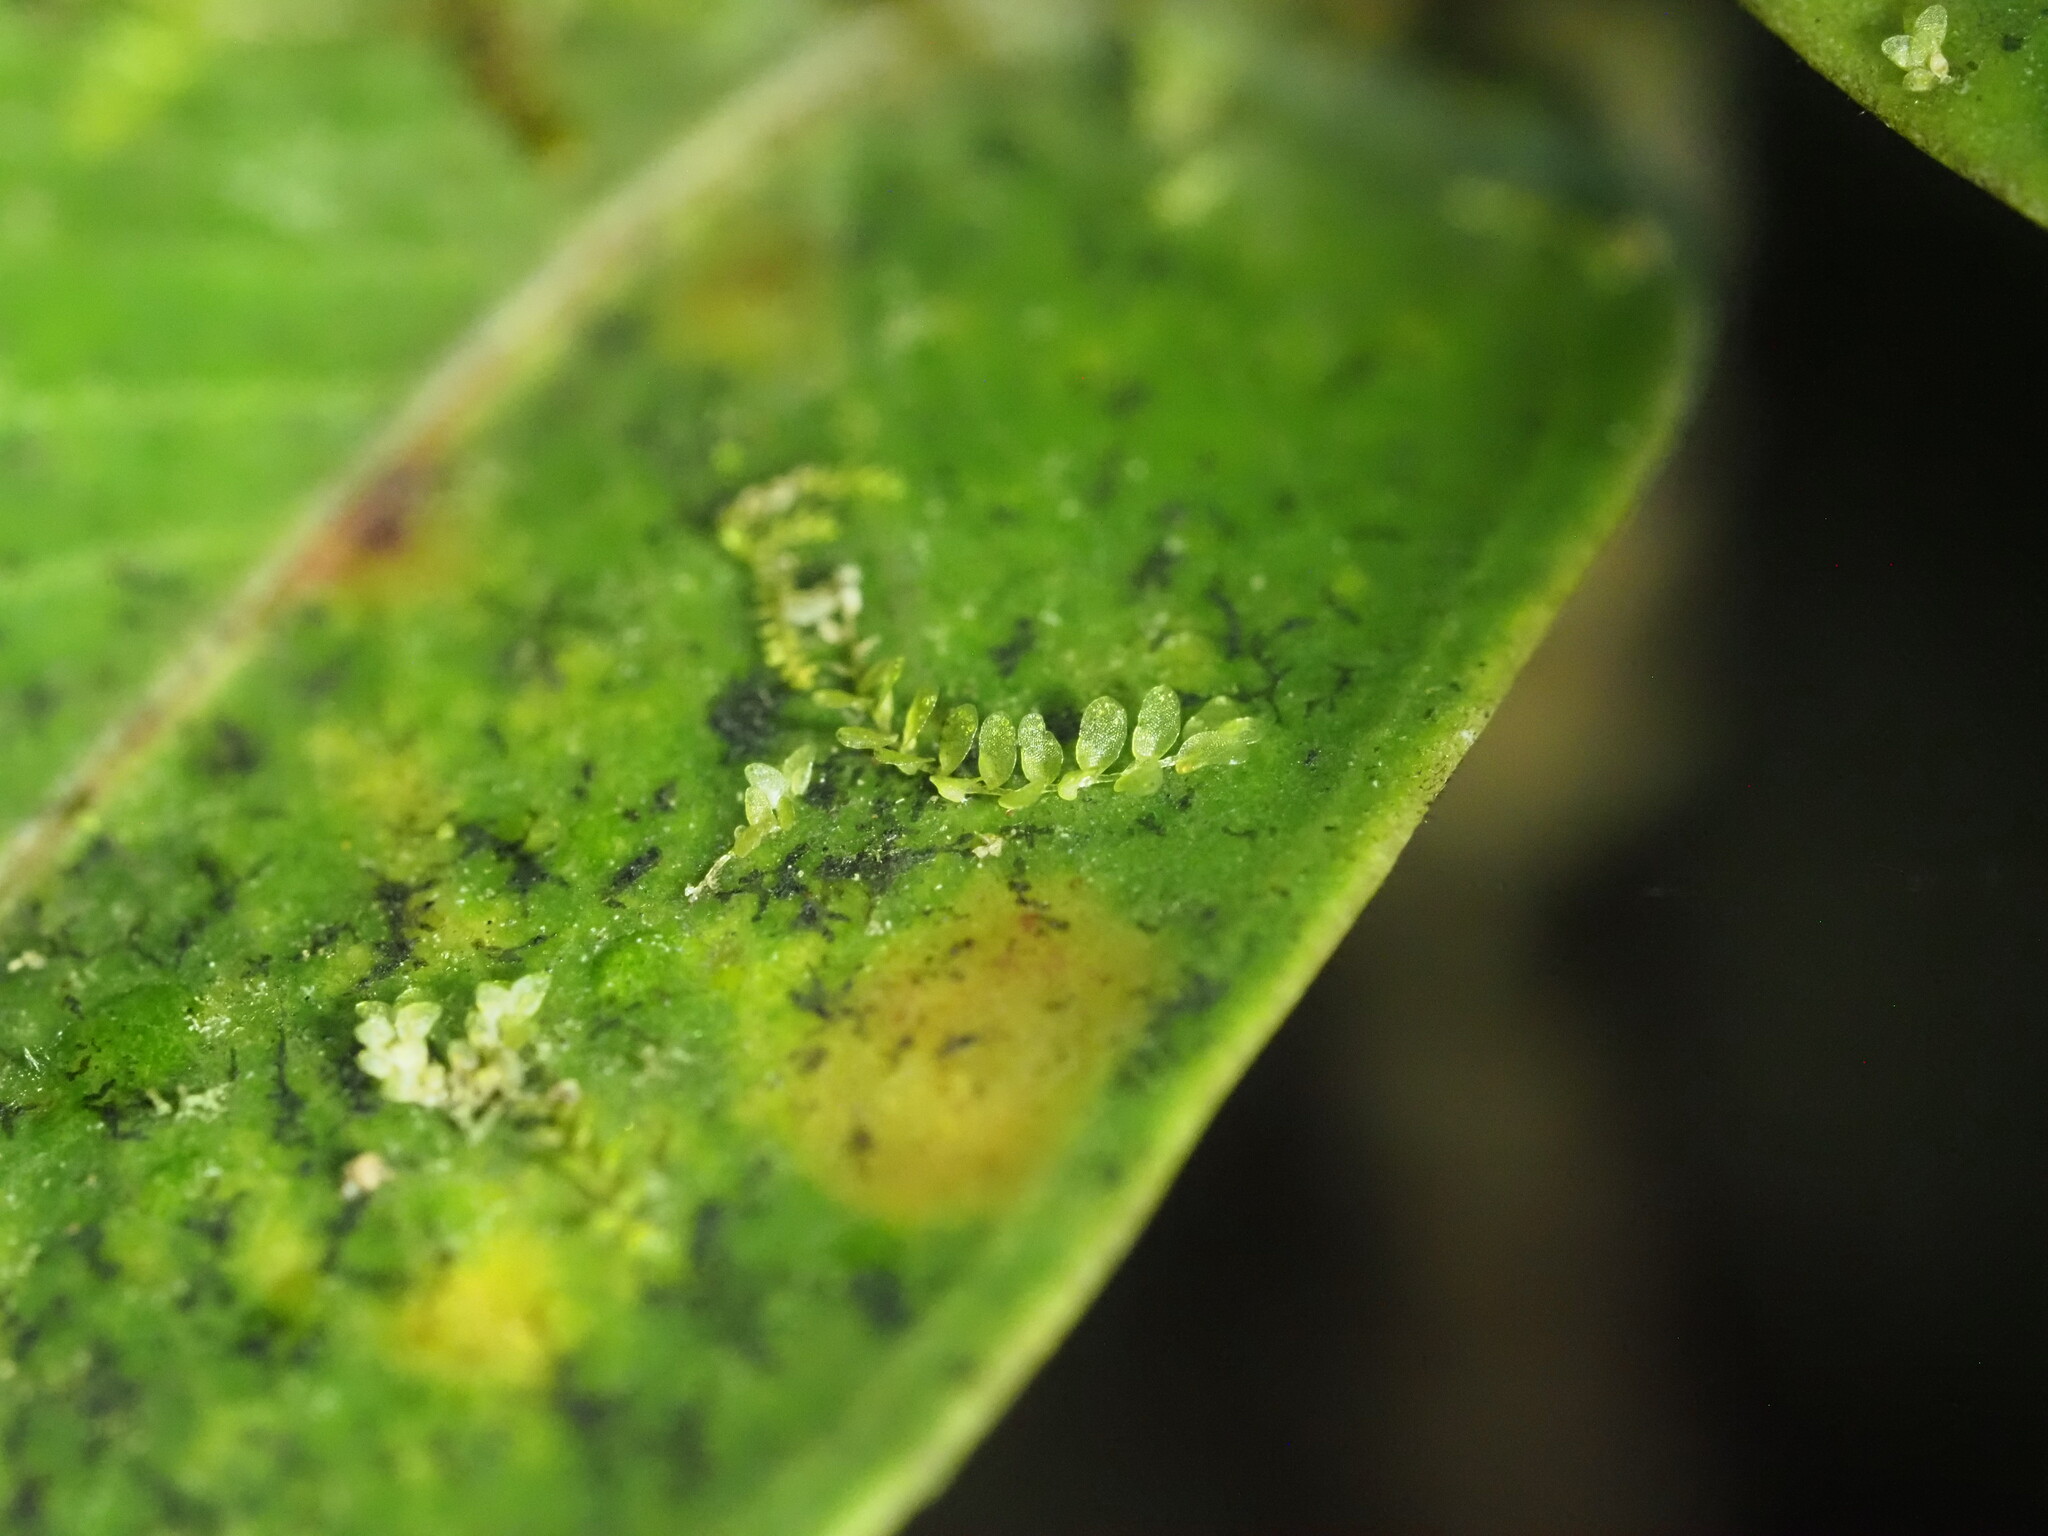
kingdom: Plantae
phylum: Marchantiophyta
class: Jungermanniopsida
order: Porellales
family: Lejeuneaceae
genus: Cololejeunea
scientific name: Cololejeunea ceatocarpa
